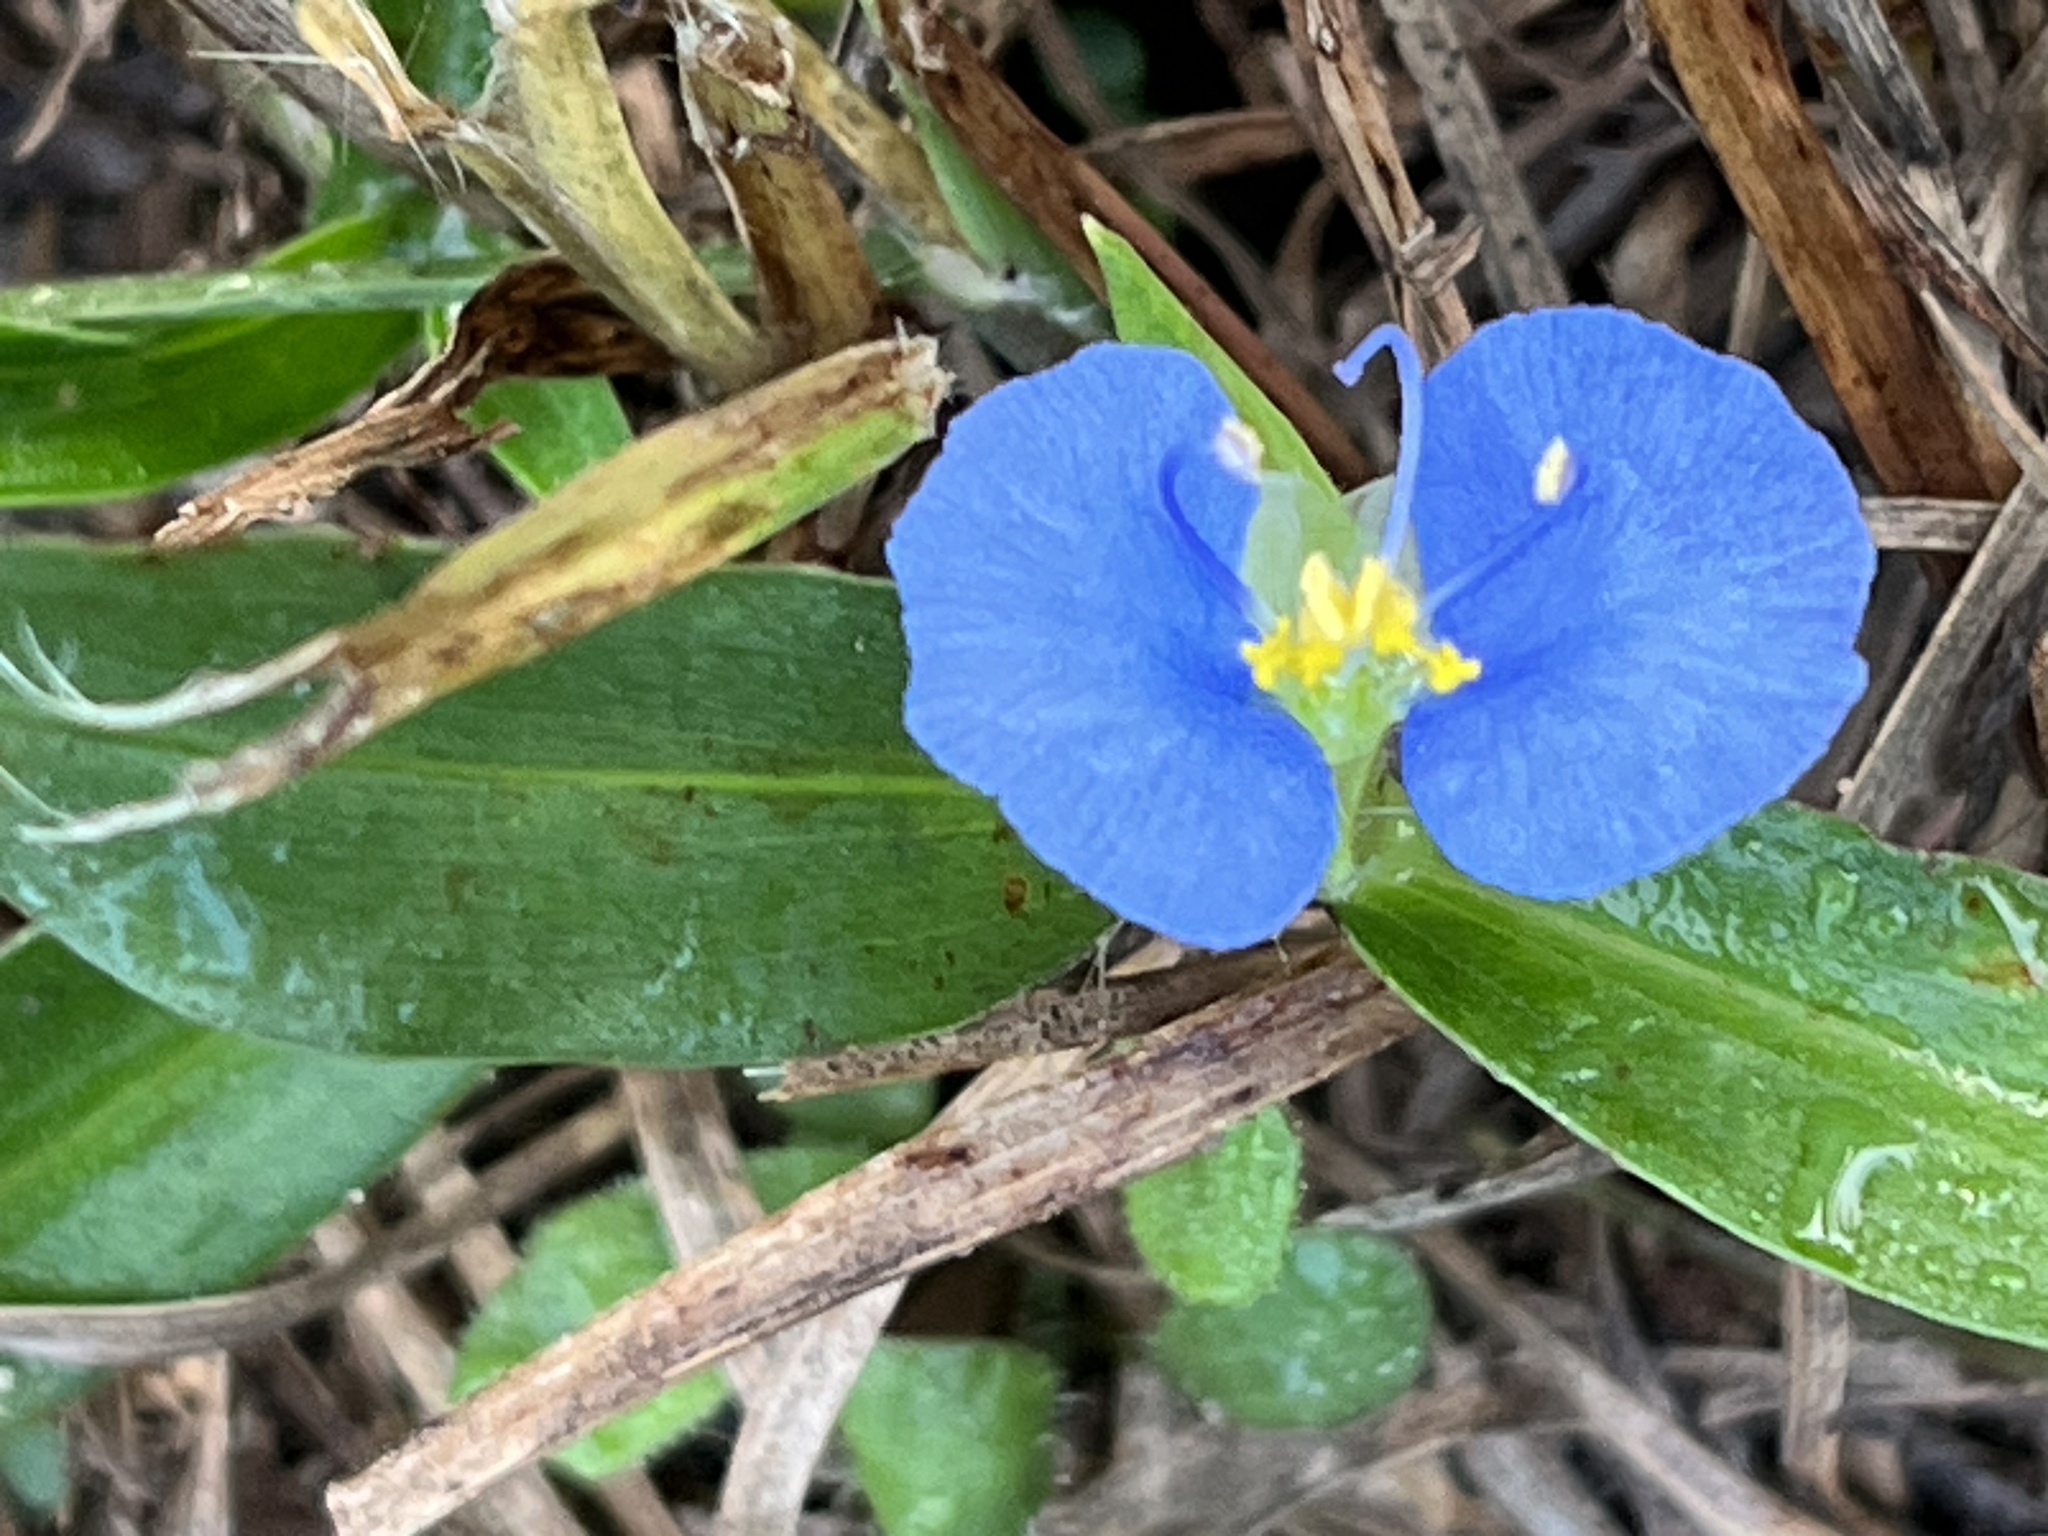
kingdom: Plantae
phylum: Tracheophyta
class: Liliopsida
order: Commelinales
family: Commelinaceae
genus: Commelina
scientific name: Commelina erecta
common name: Blousel blommetjie
